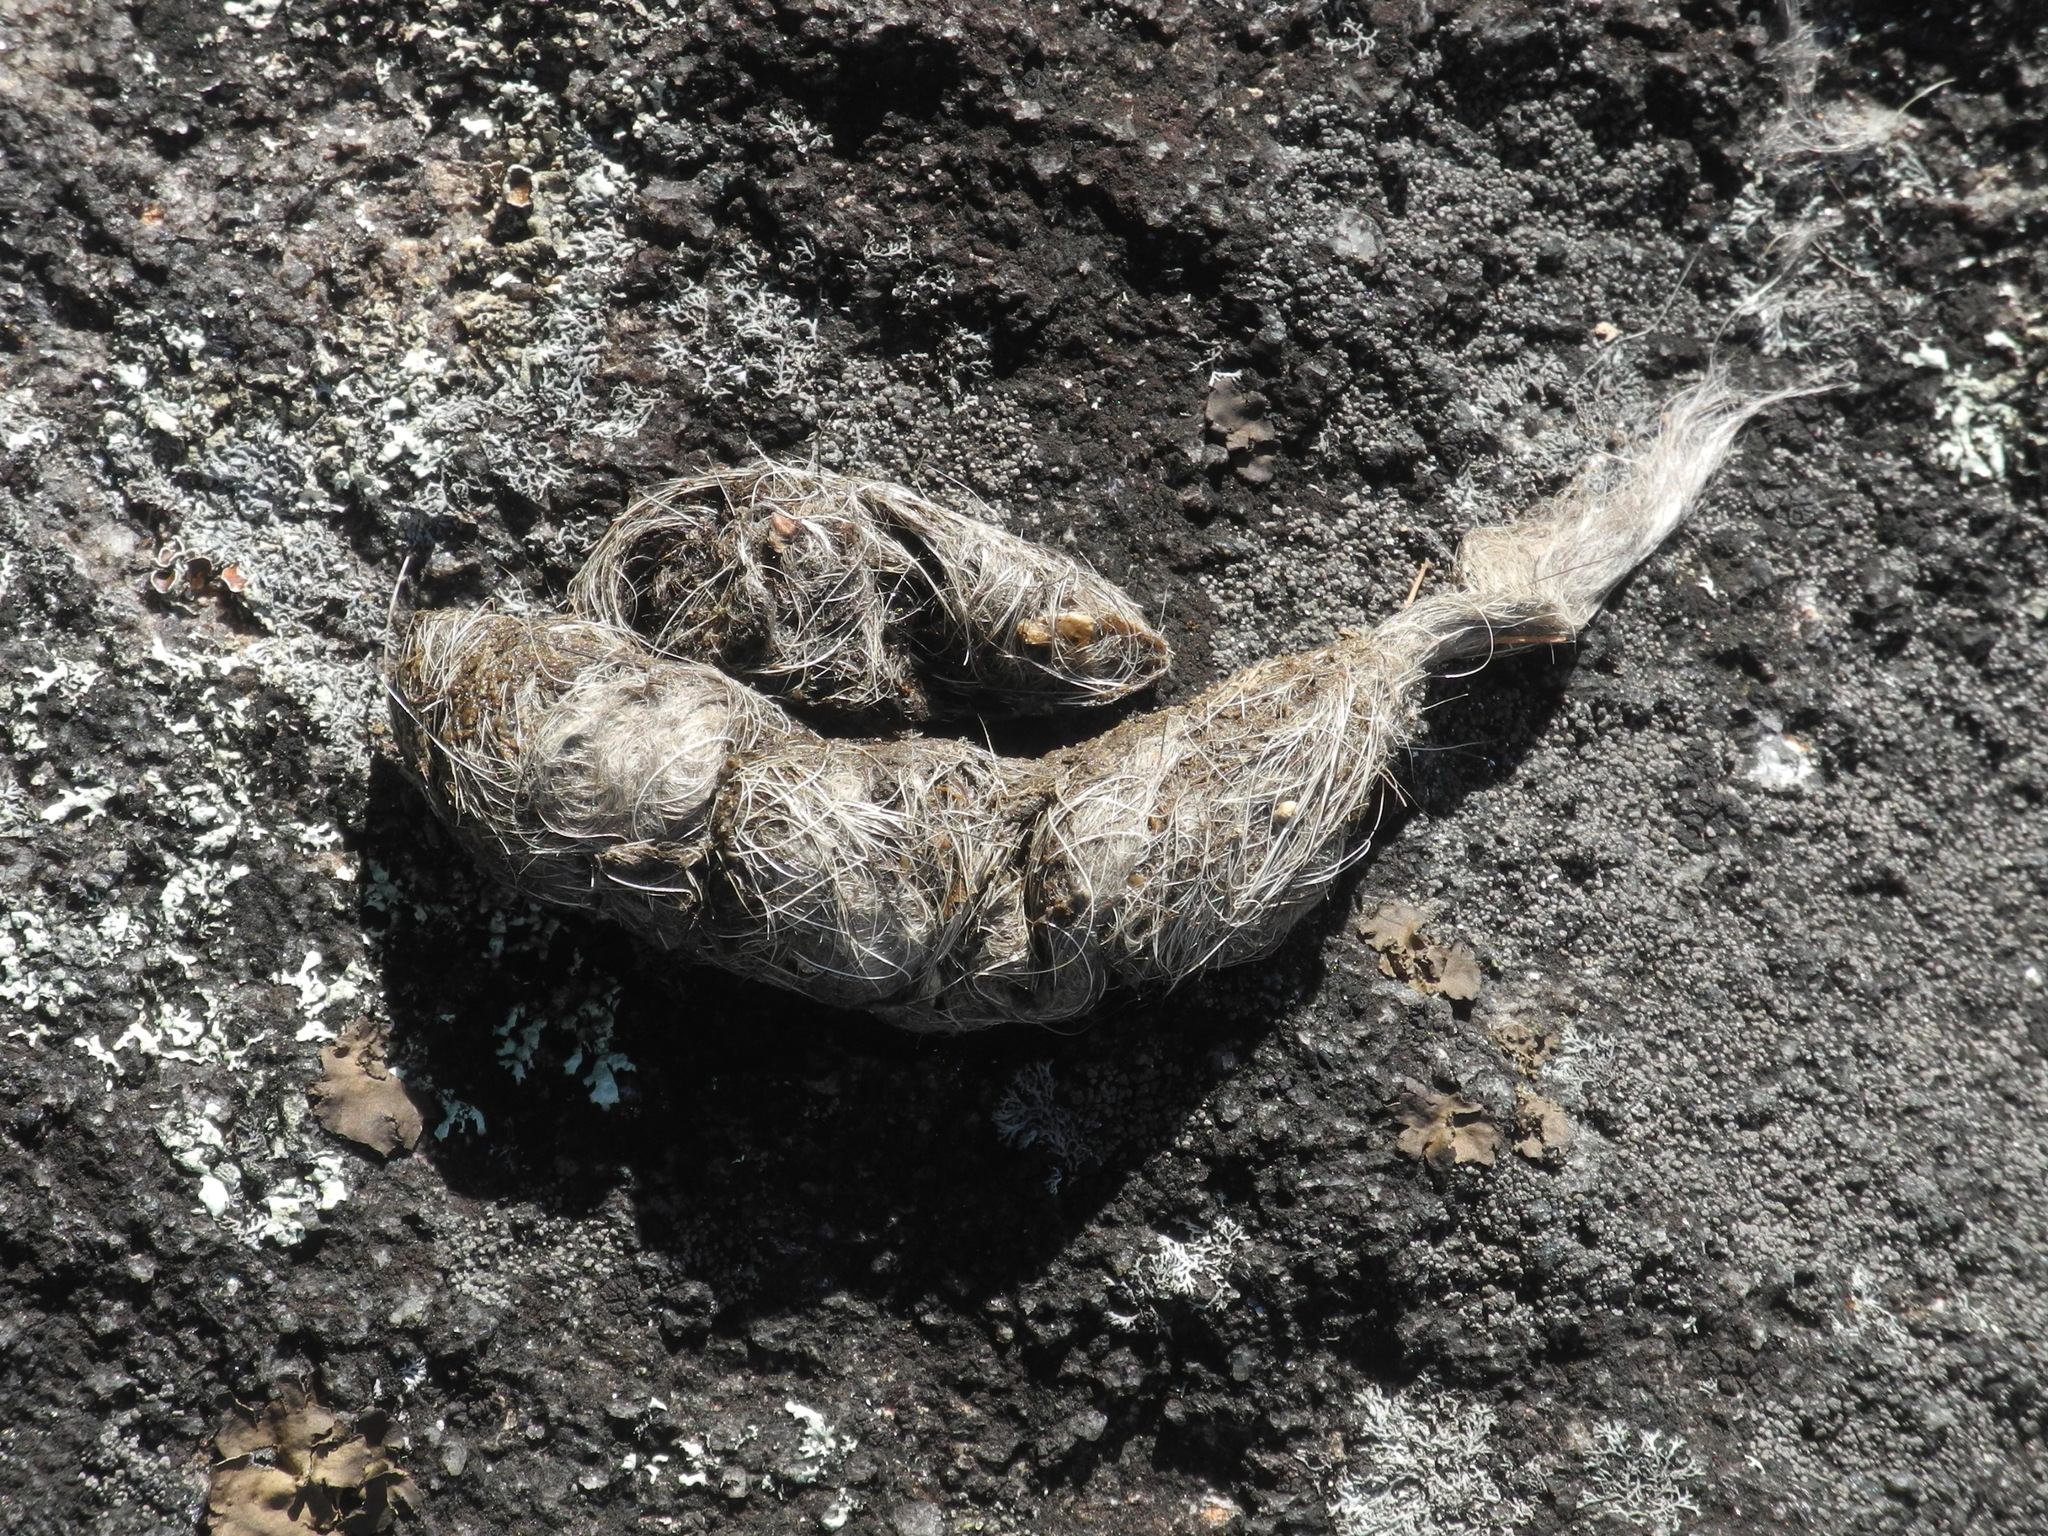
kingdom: Animalia
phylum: Chordata
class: Mammalia
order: Carnivora
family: Felidae
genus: Lynx
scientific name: Lynx rufus
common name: Bobcat
